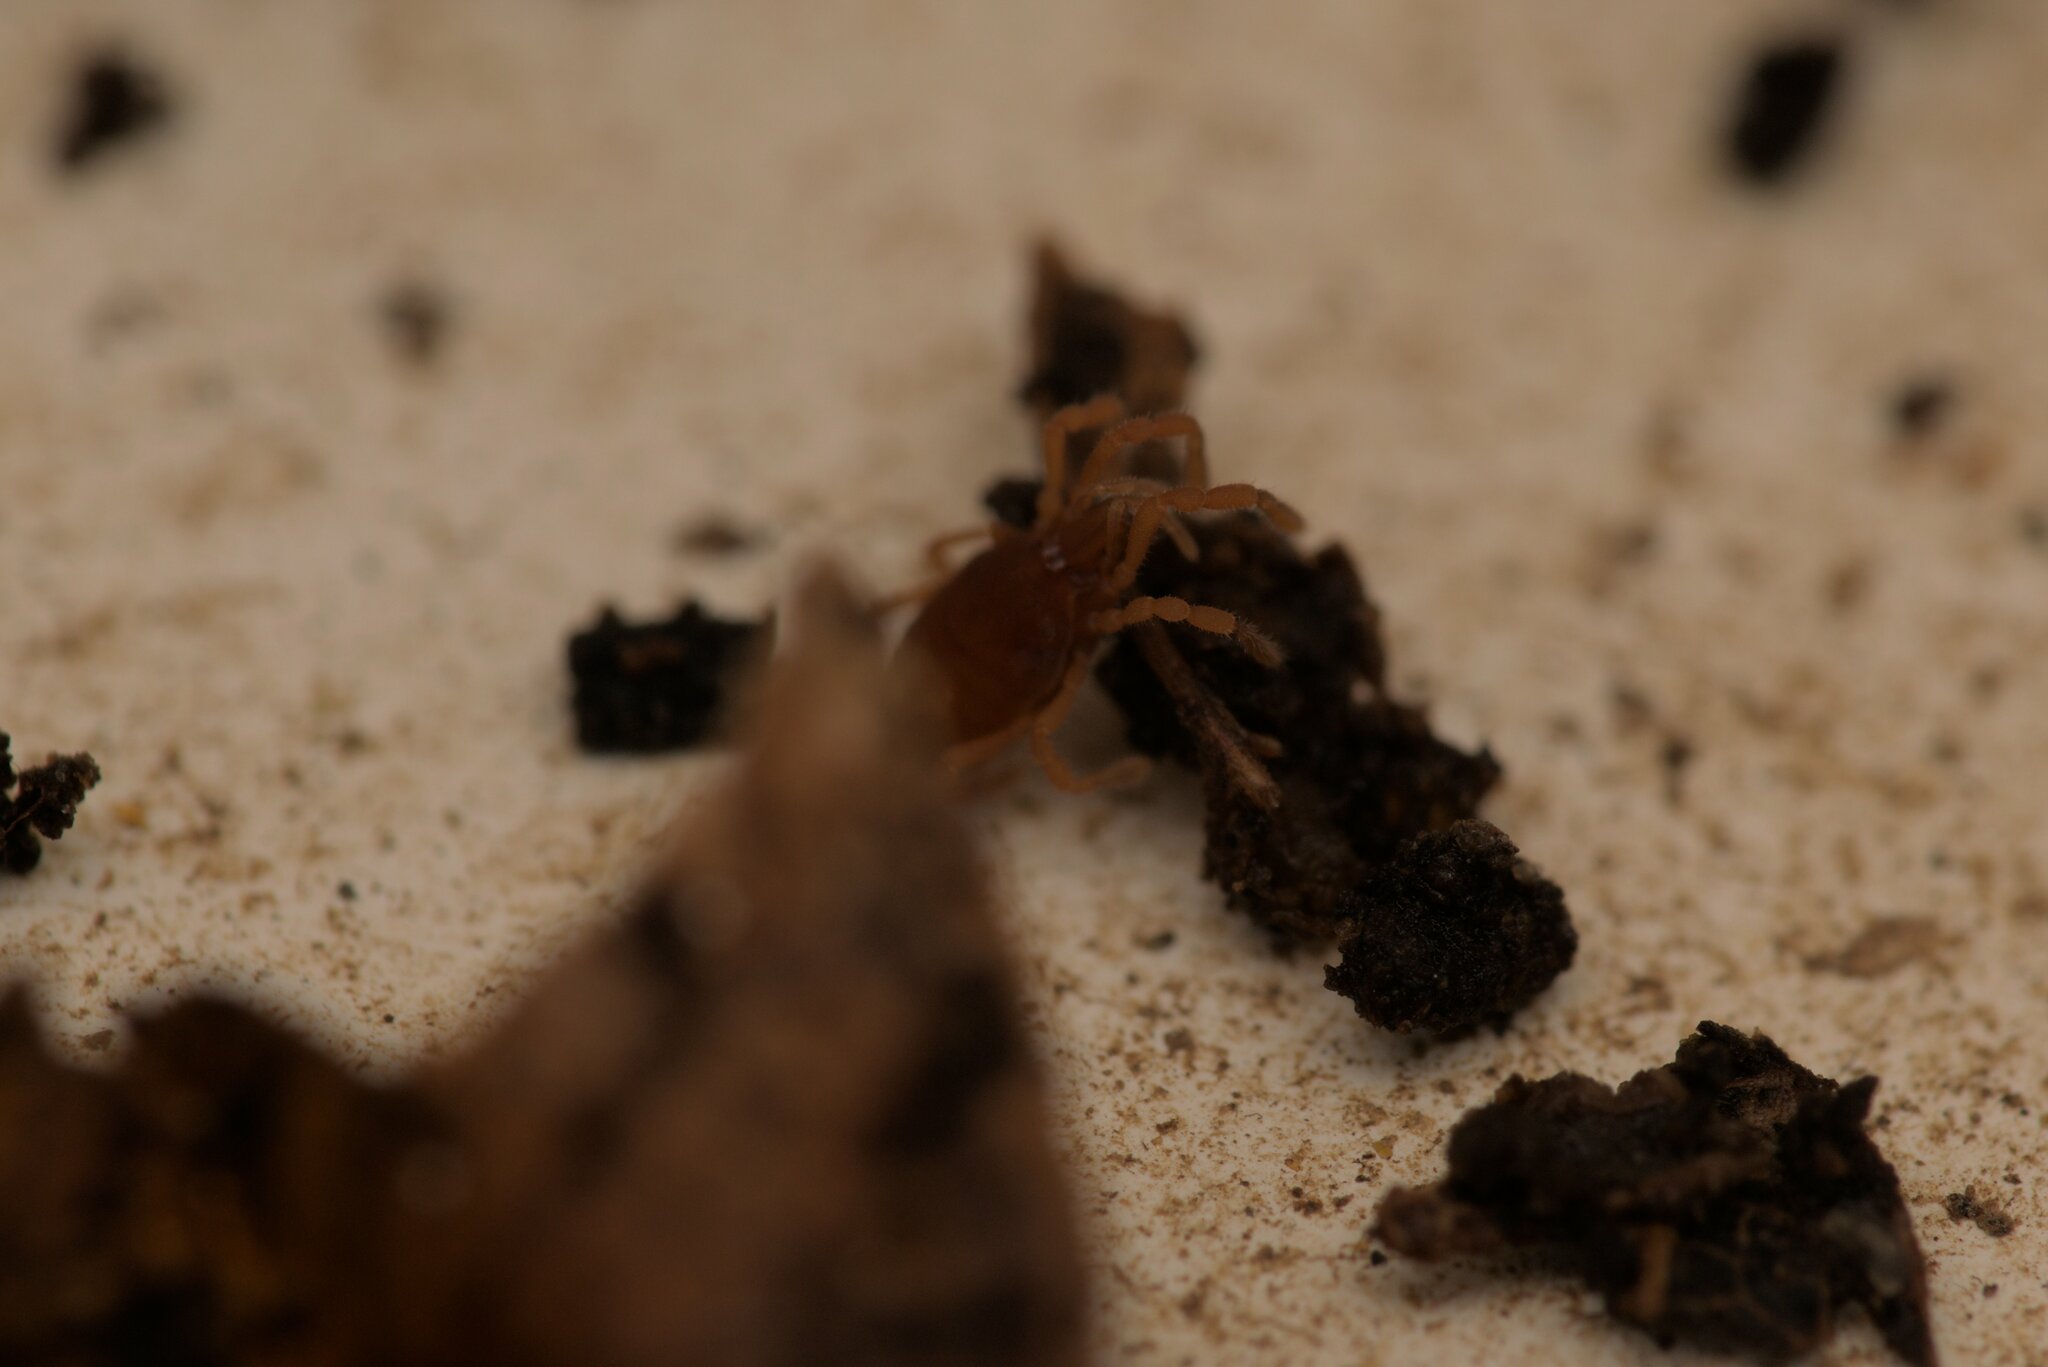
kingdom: Animalia
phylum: Arthropoda
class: Arachnida
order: Opiliones
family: Sironidae
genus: Siro
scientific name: Siro rubens
